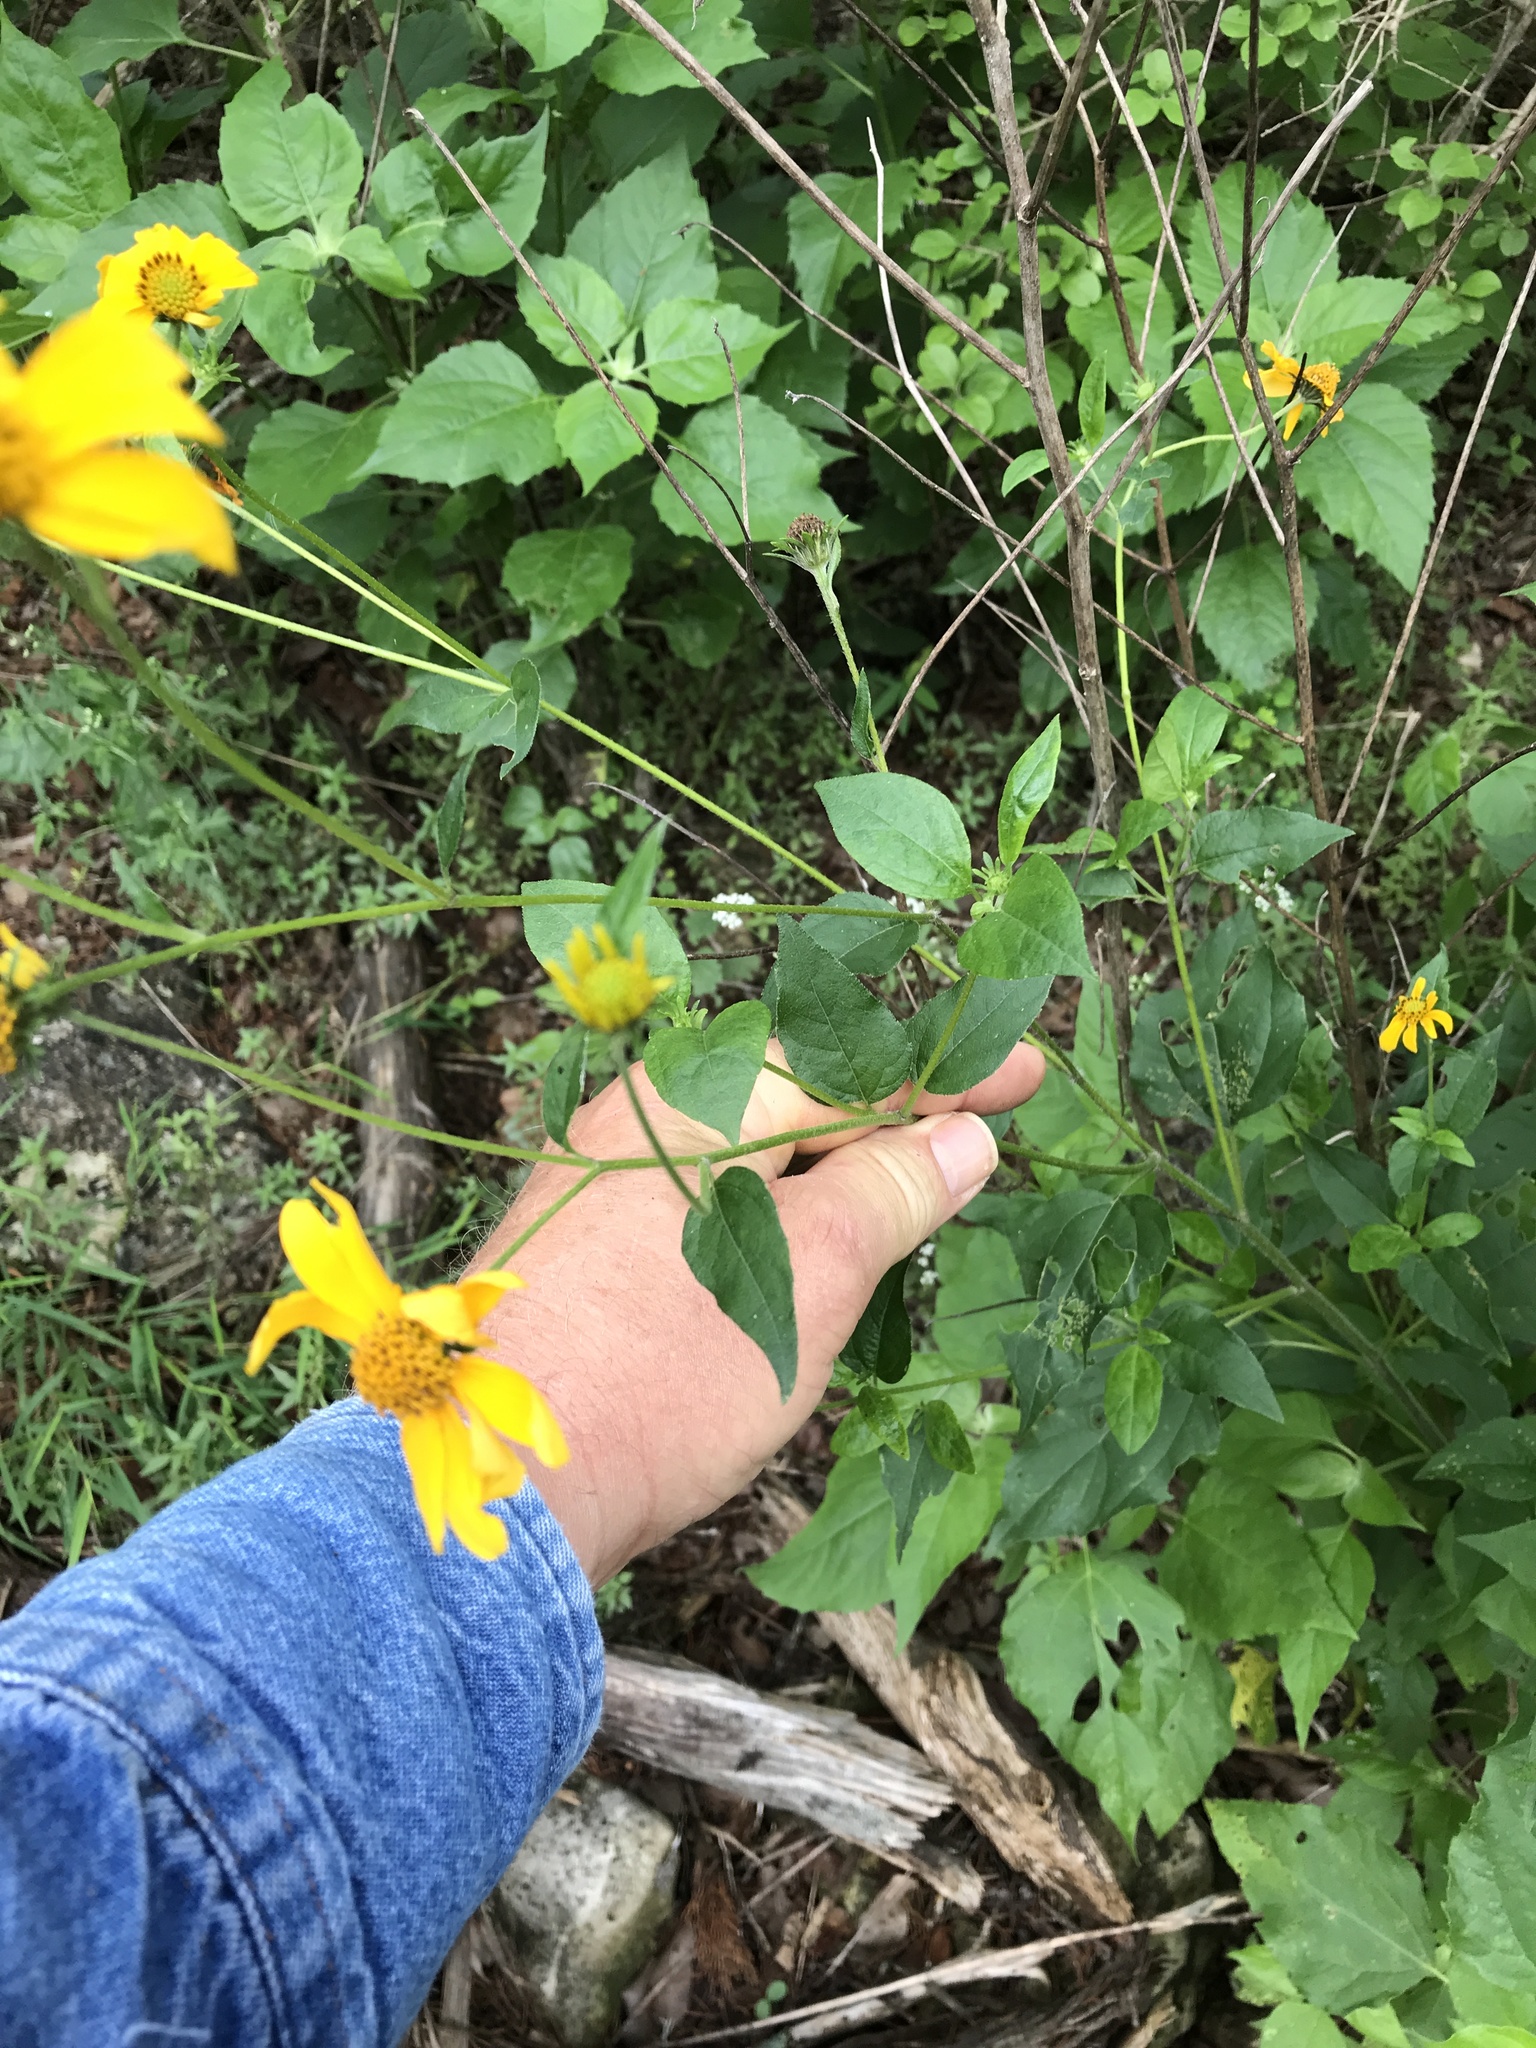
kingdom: Plantae
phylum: Tracheophyta
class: Magnoliopsida
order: Asterales
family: Asteraceae
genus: Viguiera
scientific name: Viguiera dentata
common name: Toothleaf
